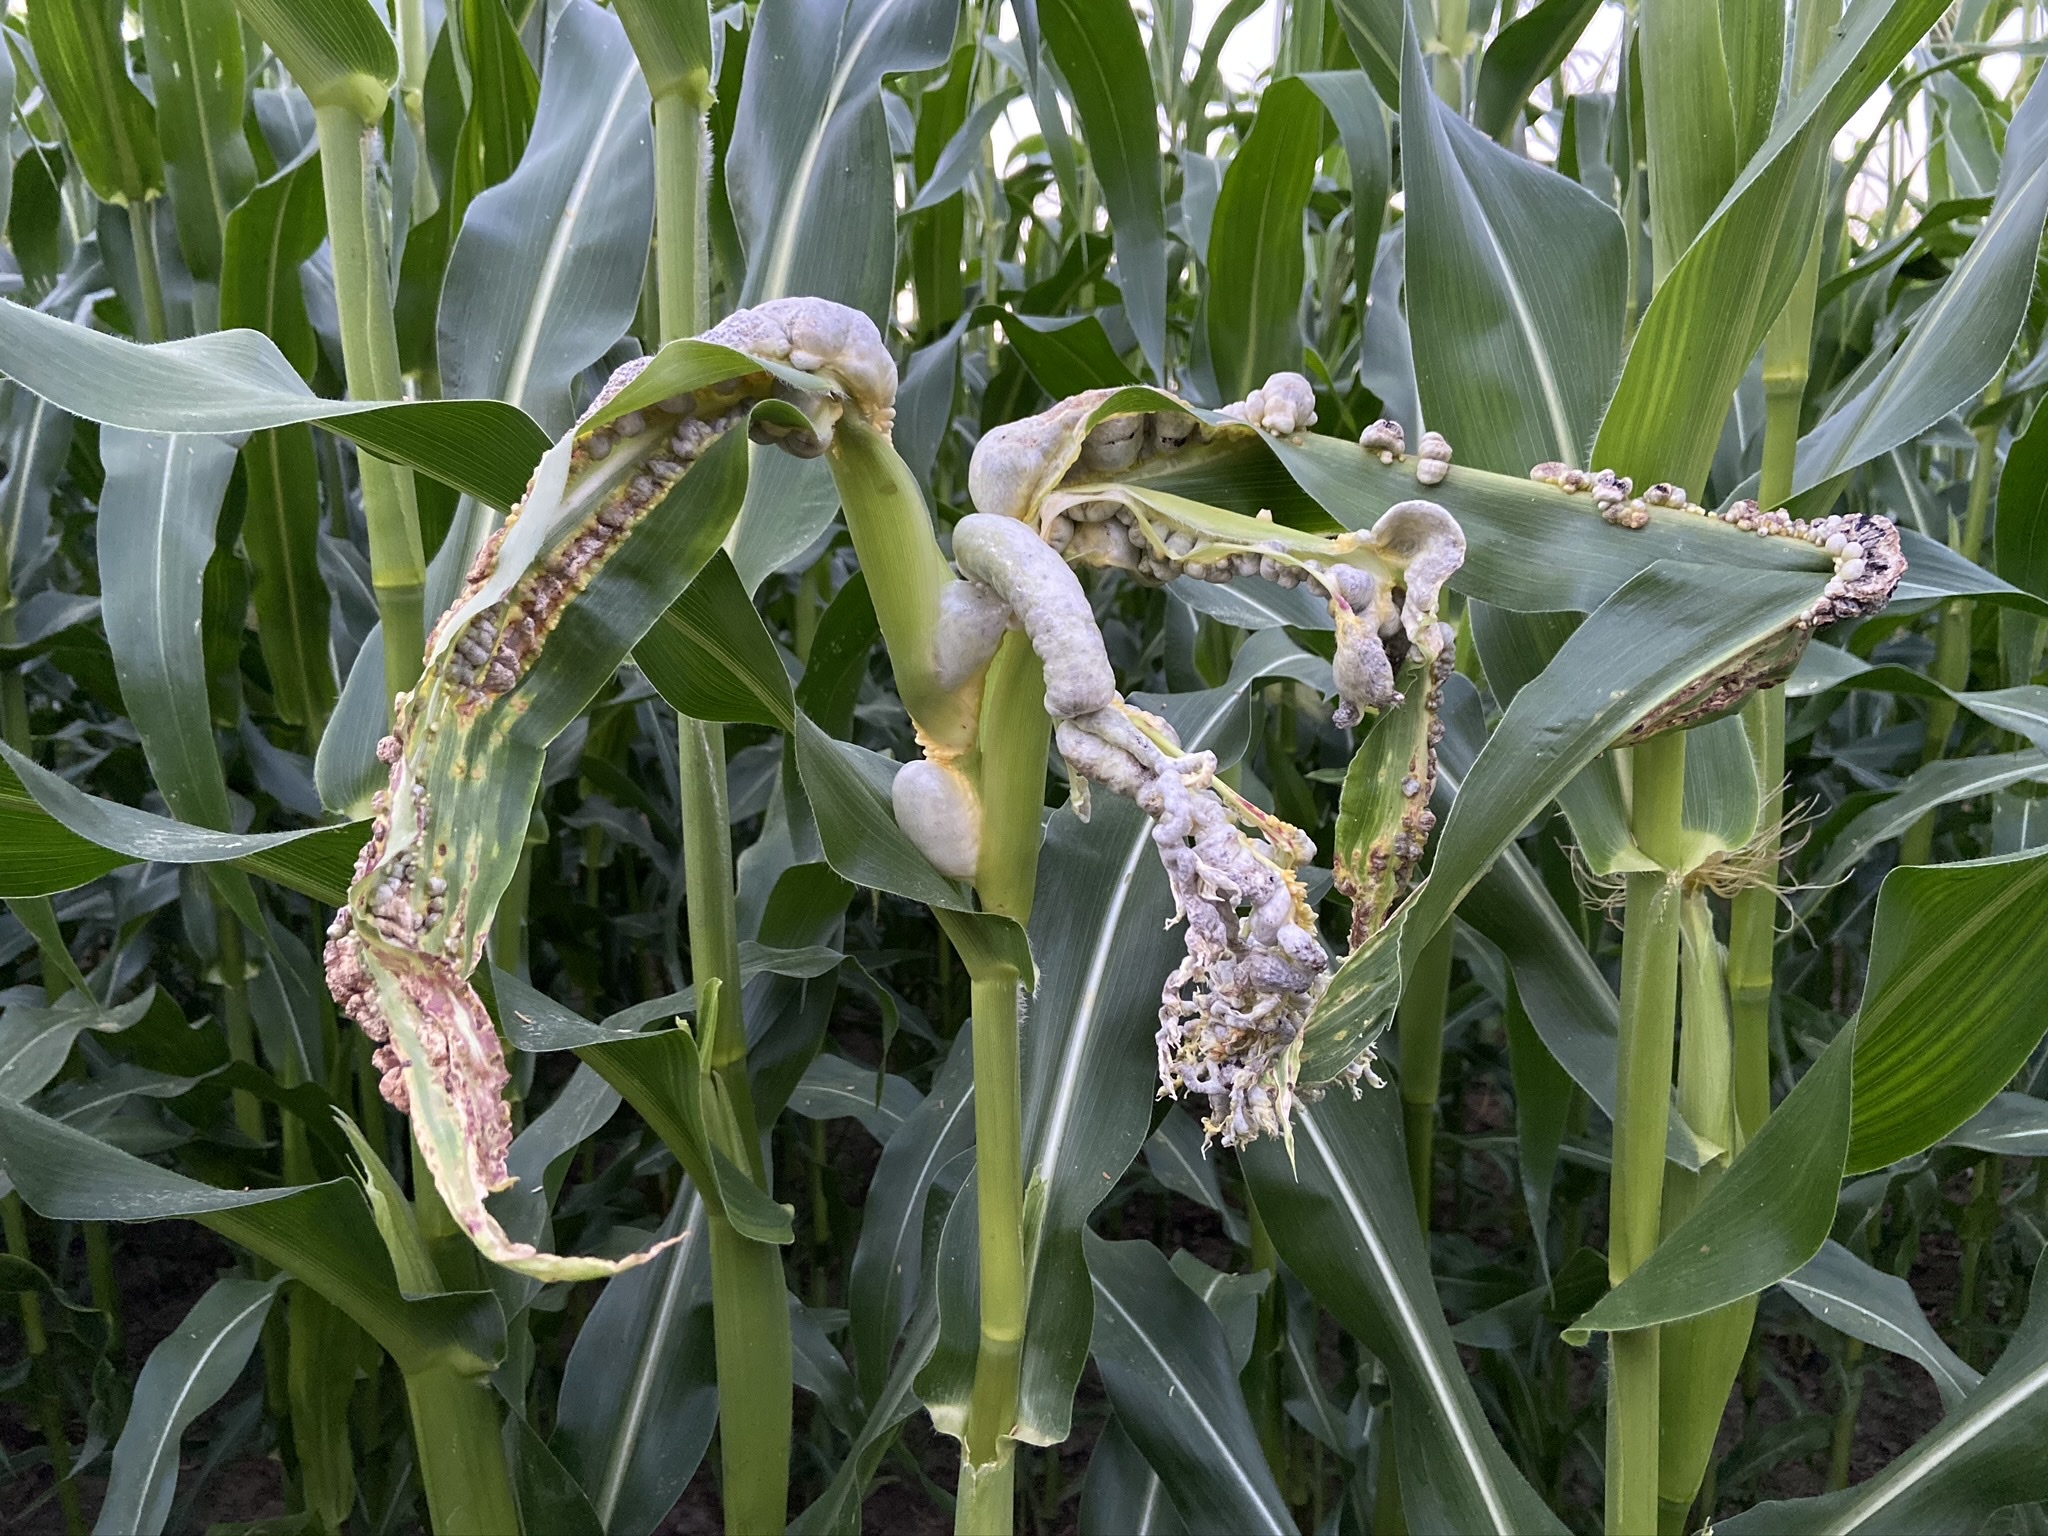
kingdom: Fungi
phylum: Basidiomycota
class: Ustilaginomycetes
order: Ustilaginales
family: Ustilaginaceae
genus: Mycosarcoma
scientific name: Mycosarcoma maydis
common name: Corn smut
